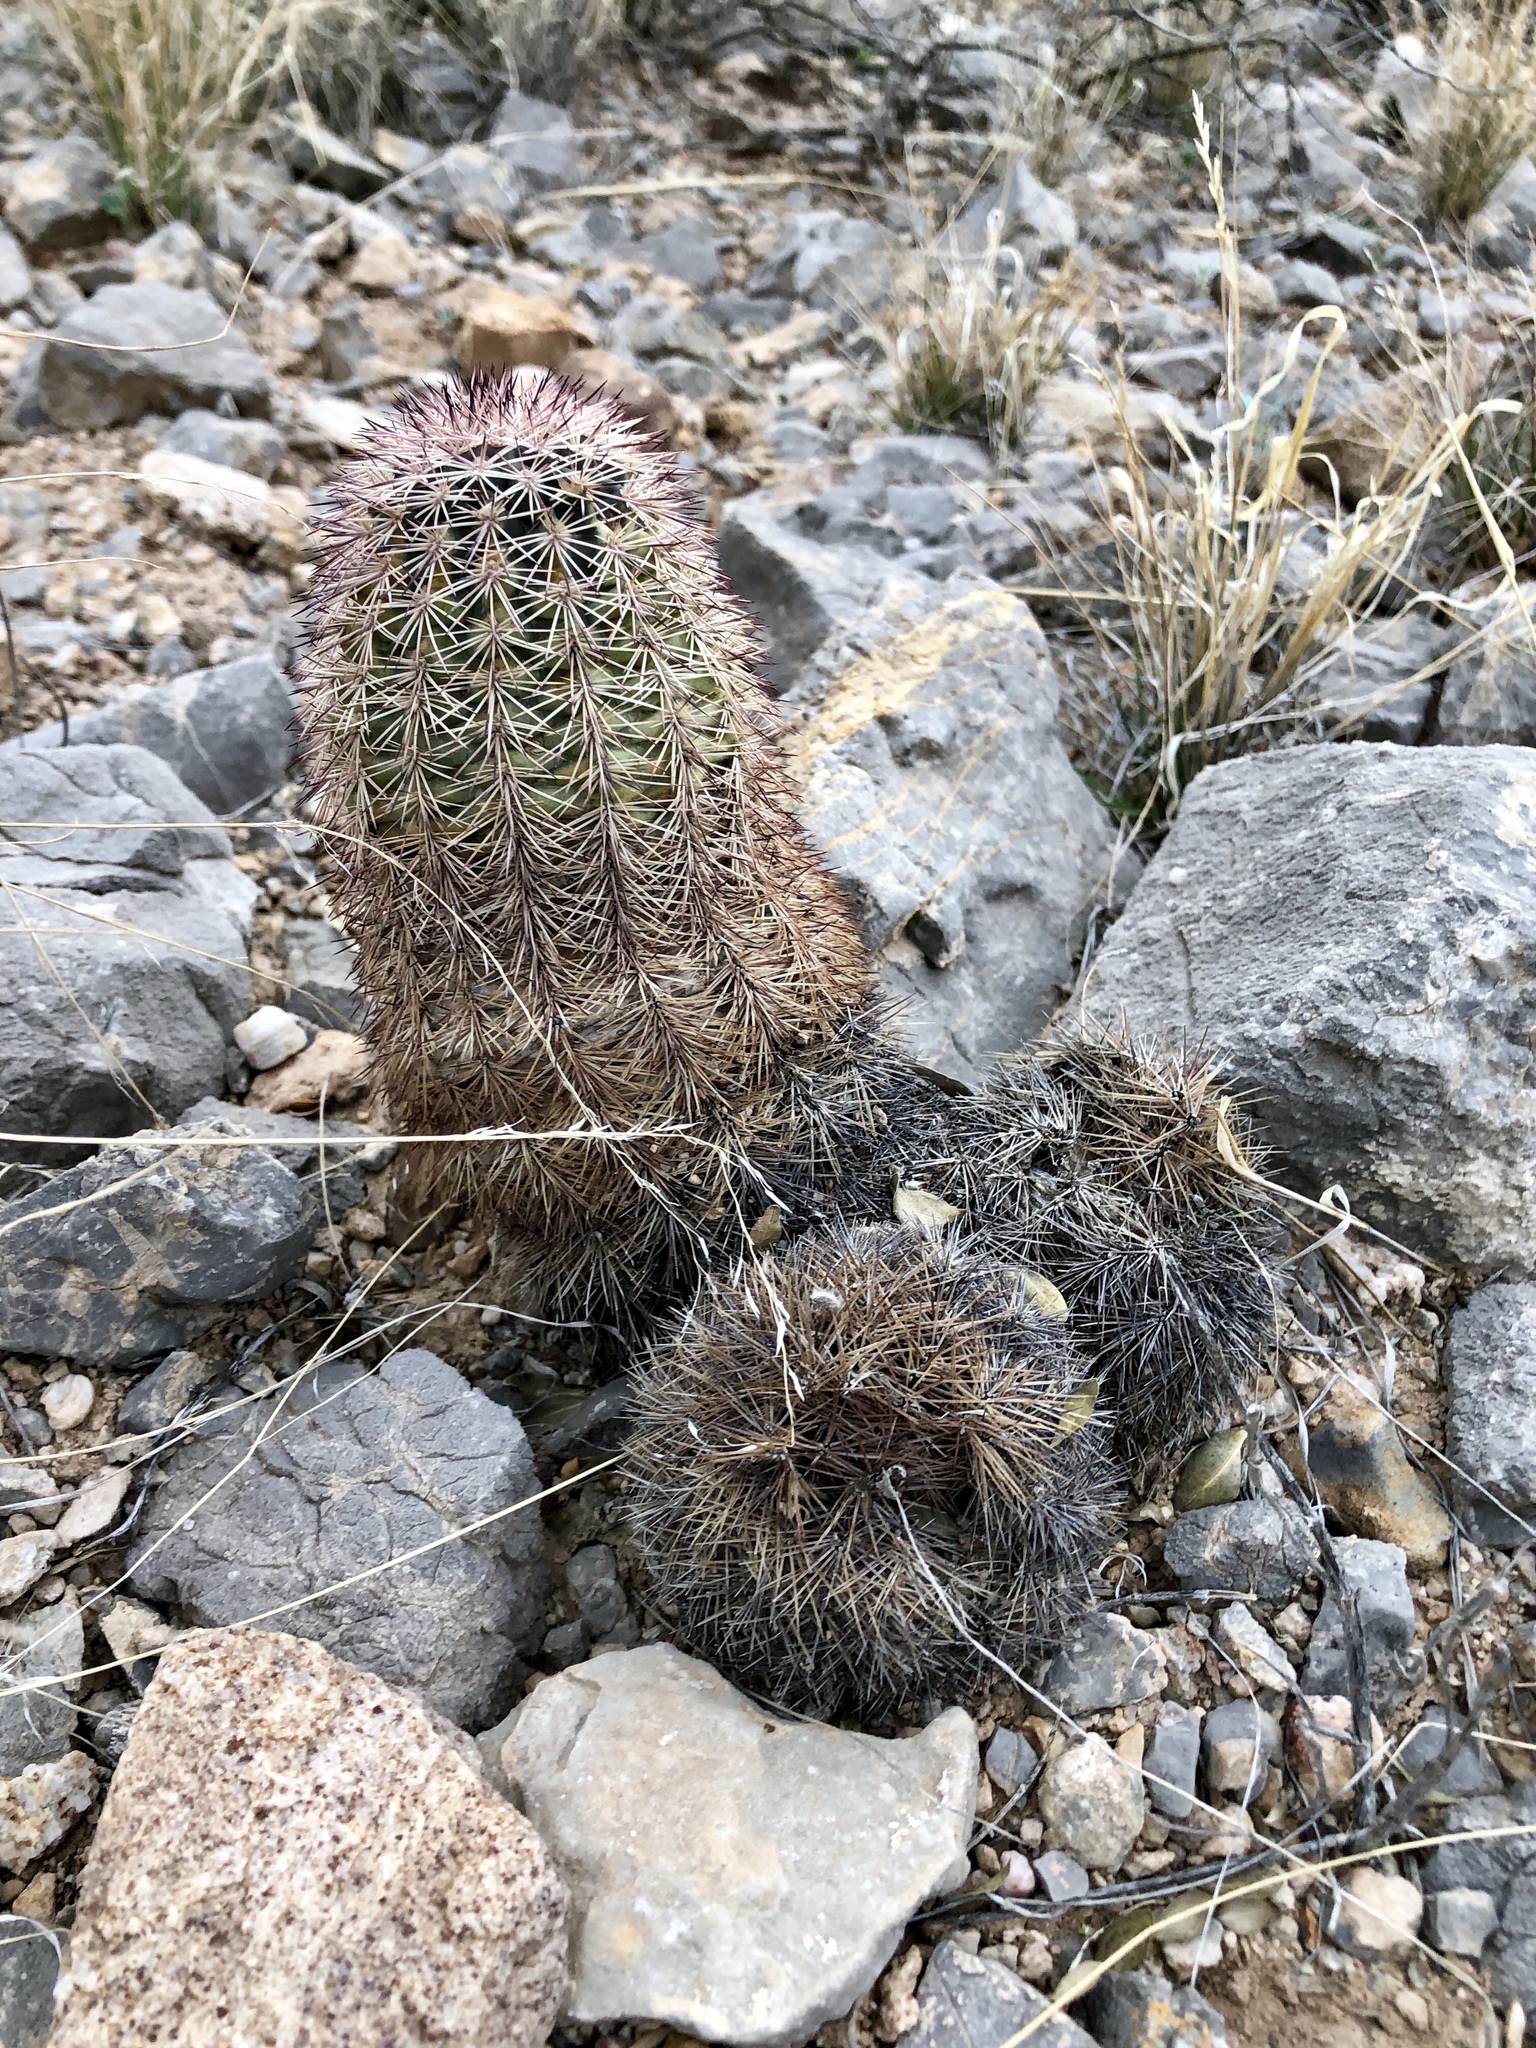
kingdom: Plantae
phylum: Tracheophyta
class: Magnoliopsida
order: Caryophyllales
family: Cactaceae
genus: Echinocereus
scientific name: Echinocereus dasyacanthus
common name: Spiny hedgehog cactus
